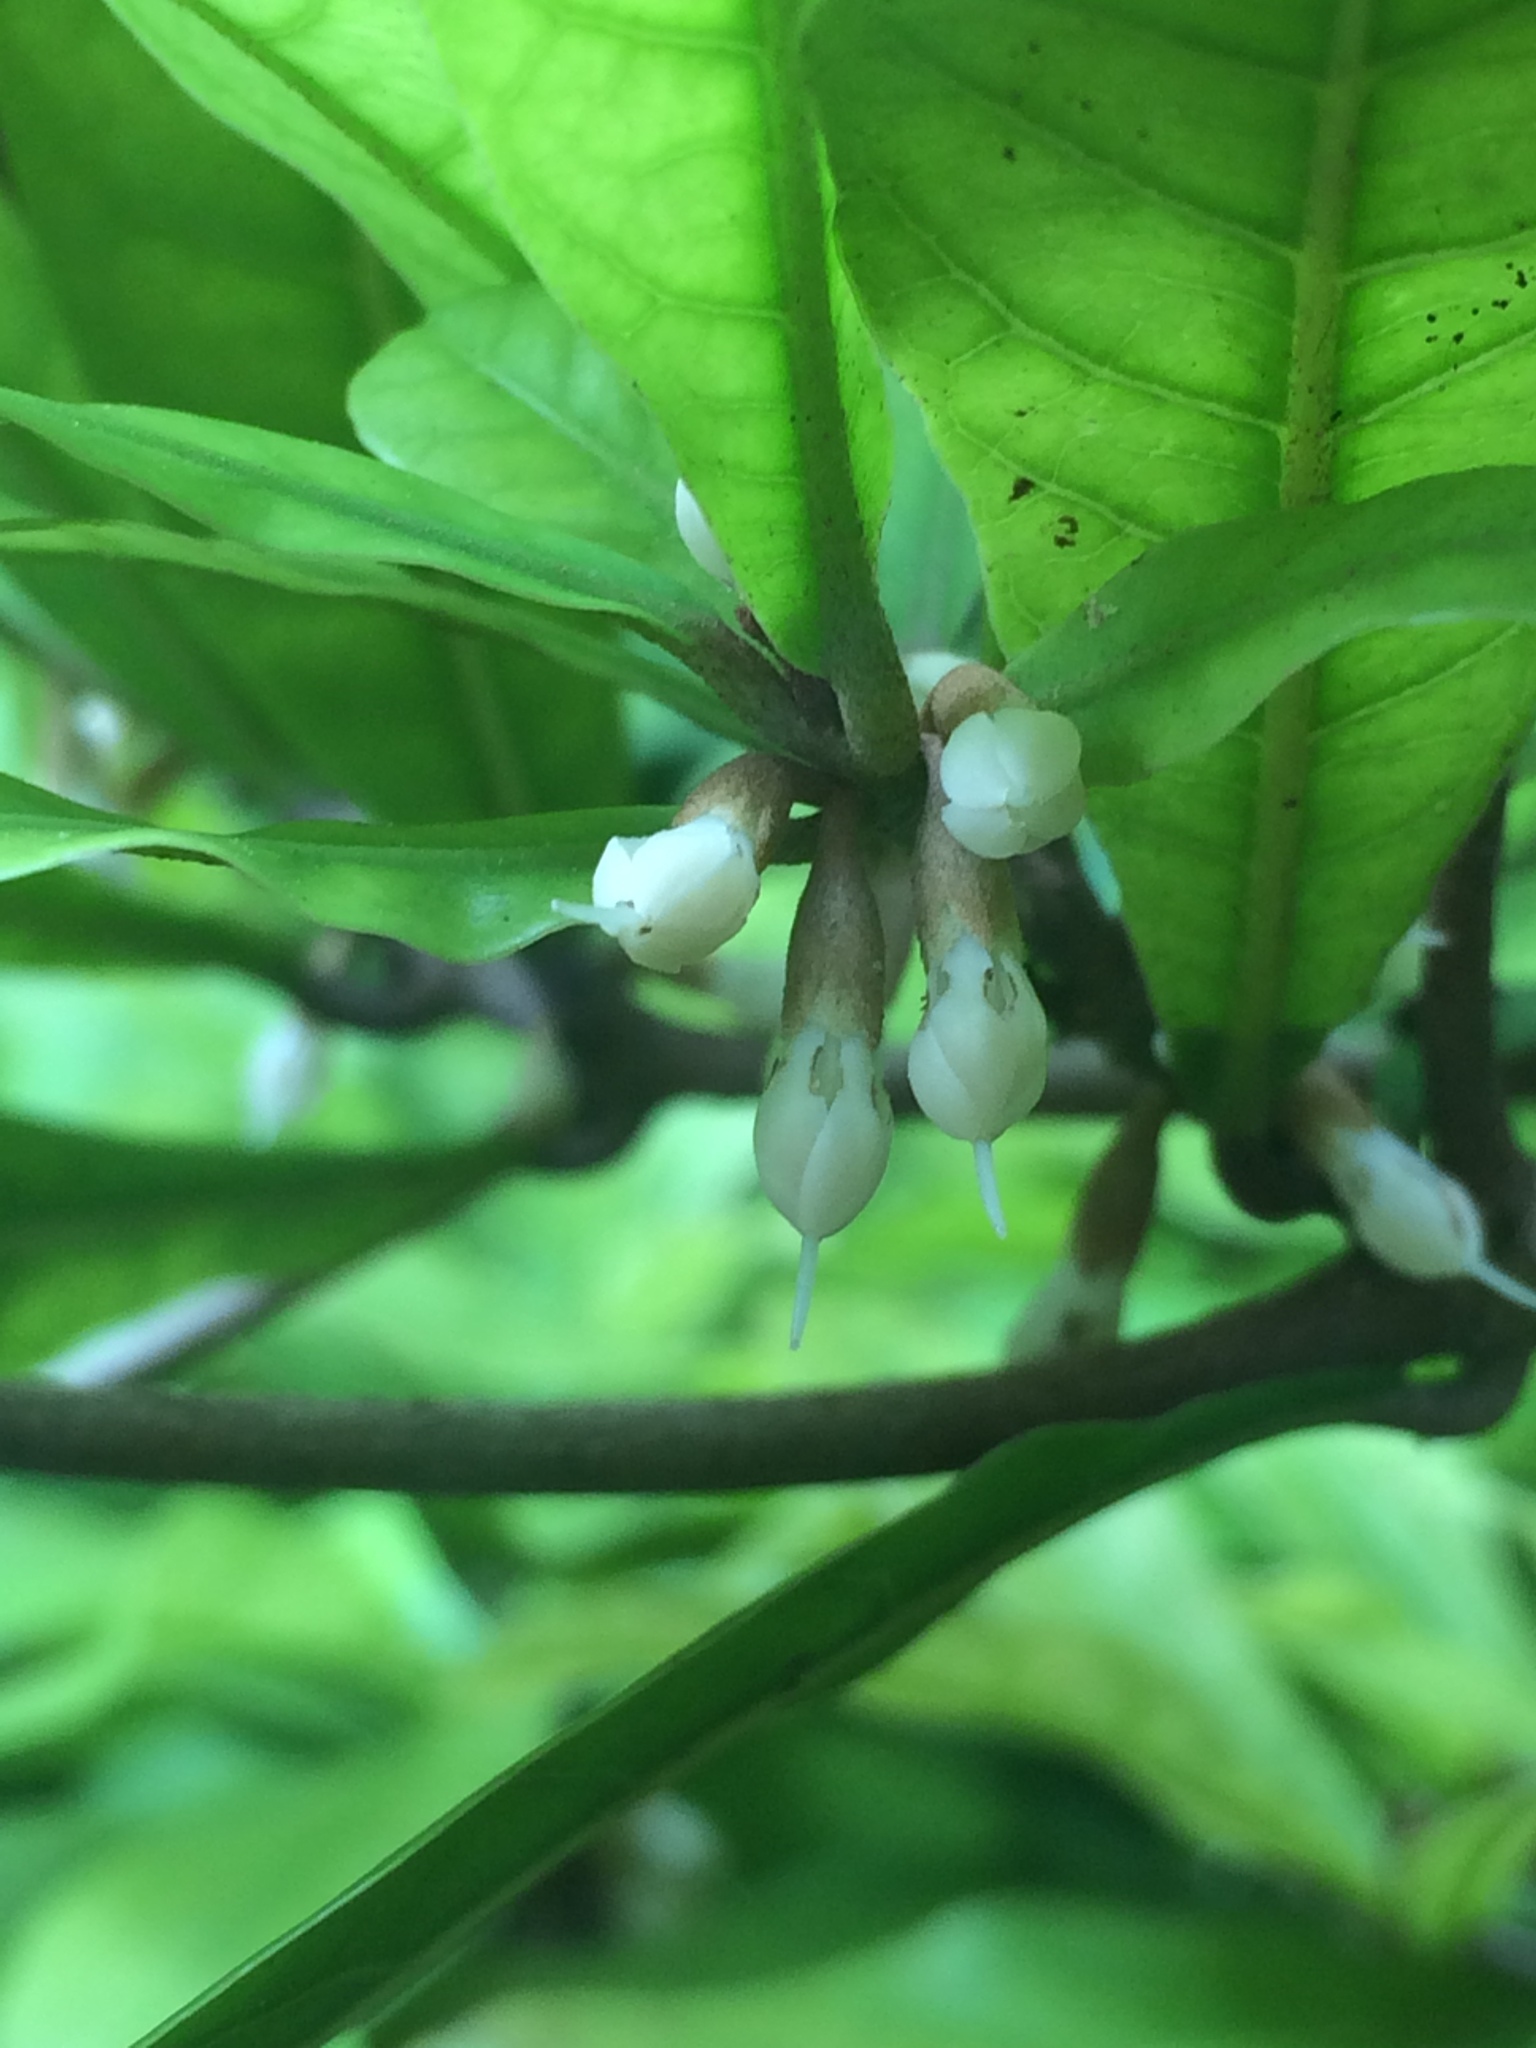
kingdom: Plantae
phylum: Tracheophyta
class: Magnoliopsida
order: Ericales
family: Sapotaceae
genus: Synsepalum
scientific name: Synsepalum dulcificum
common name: Miracle-fruit
